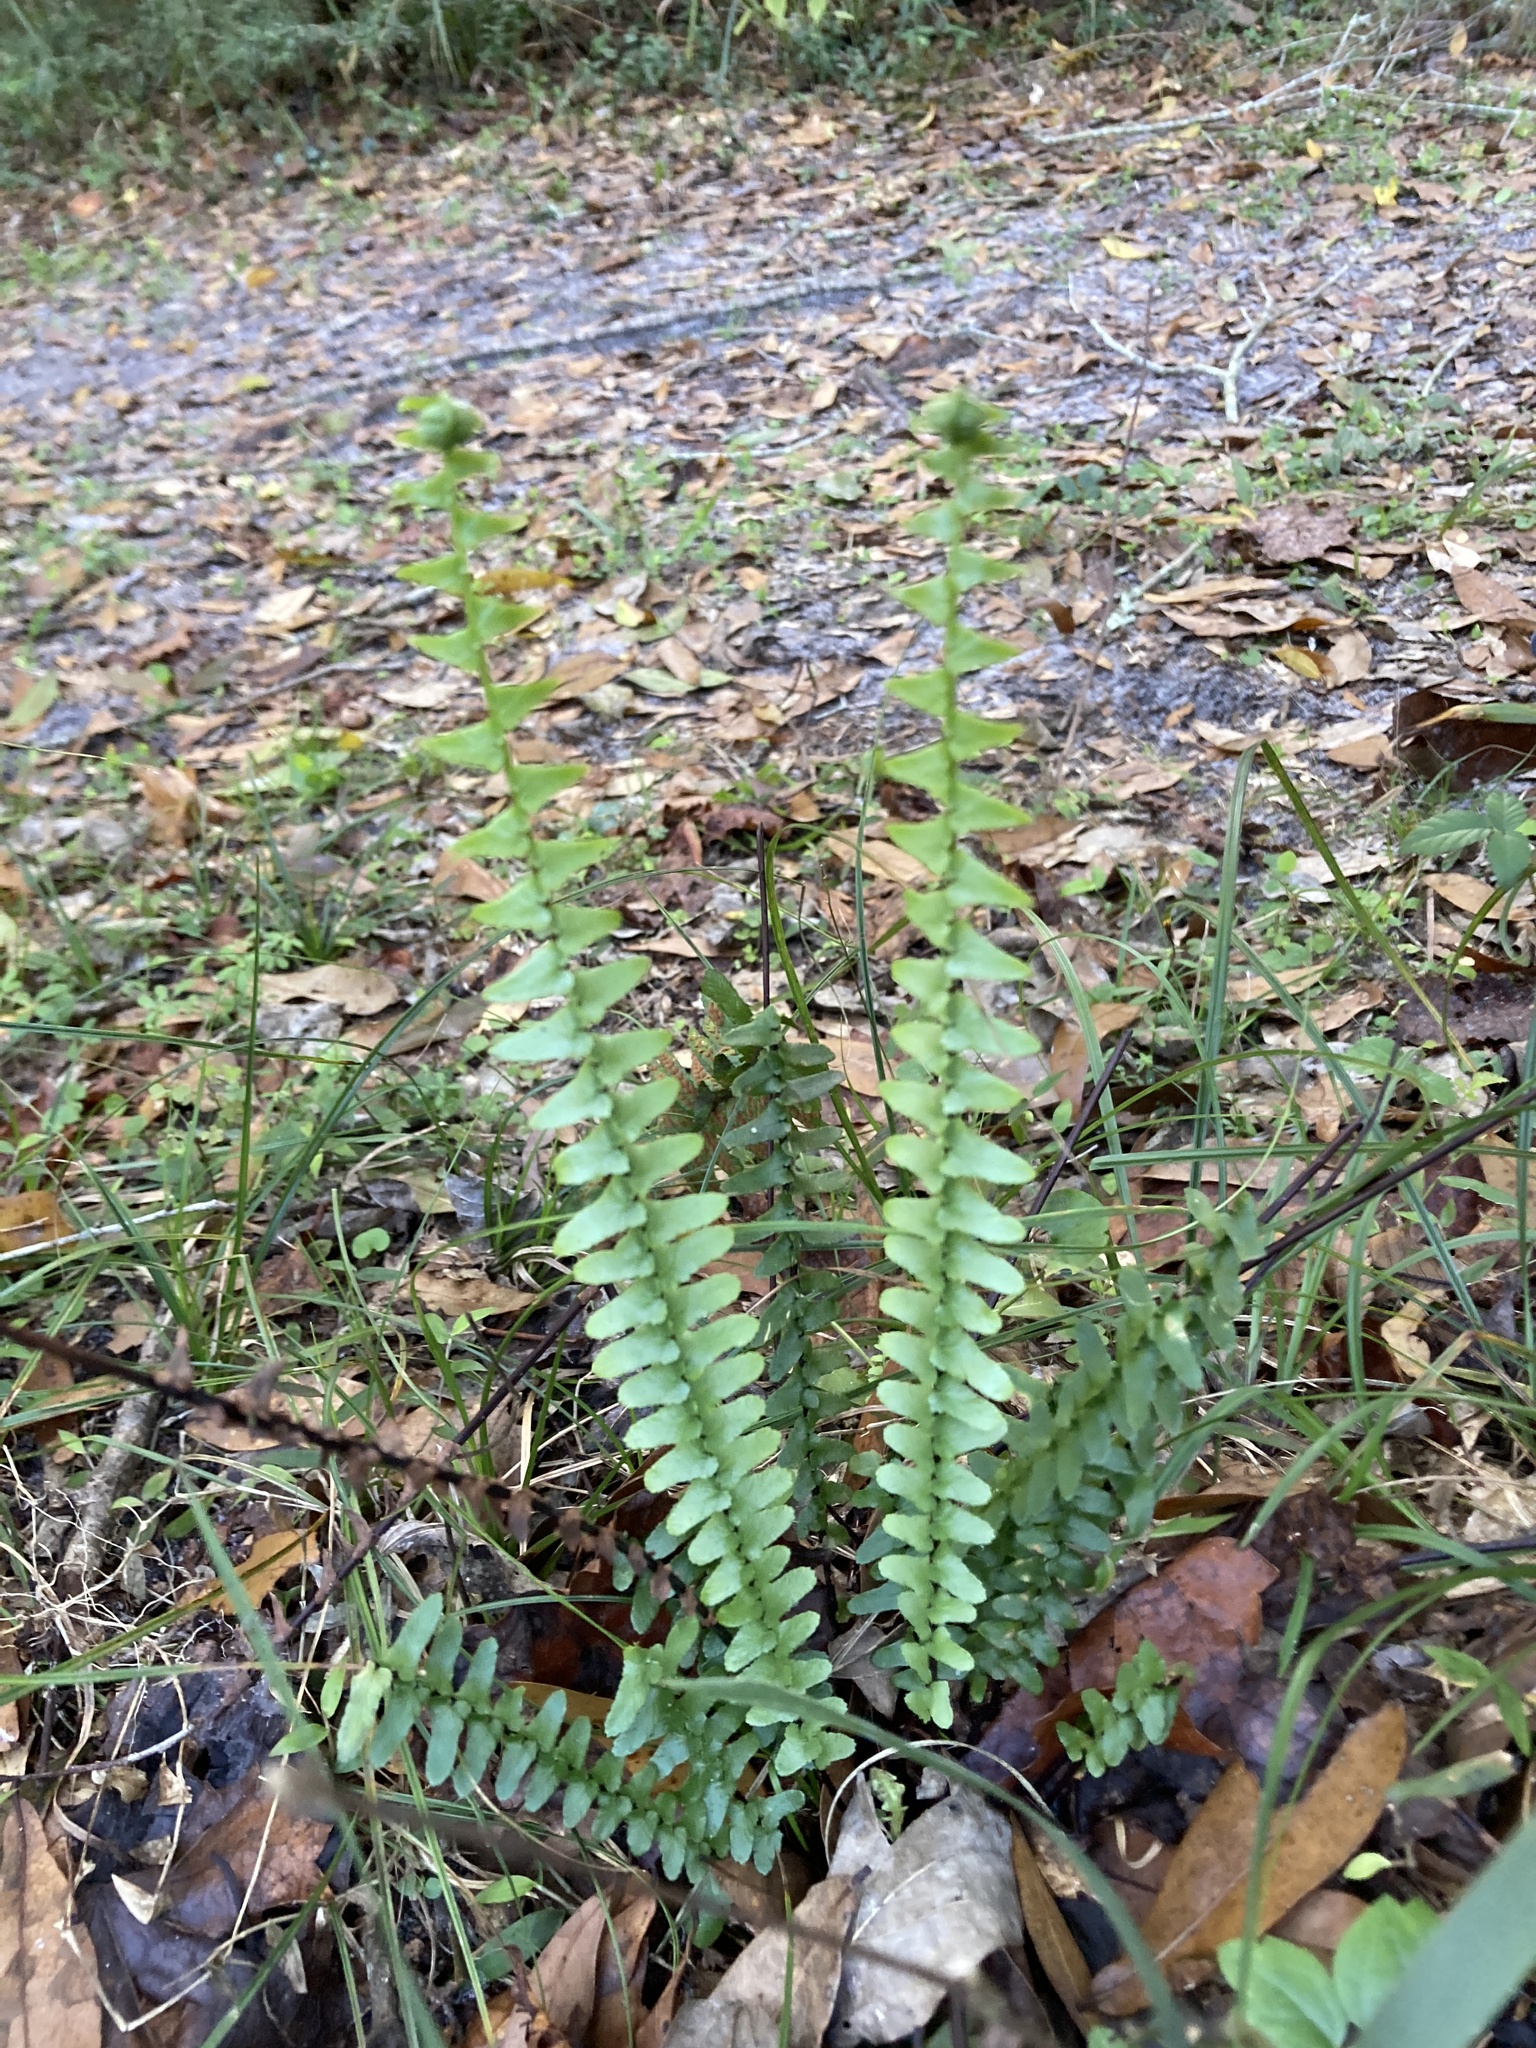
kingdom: Plantae
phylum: Tracheophyta
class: Polypodiopsida
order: Polypodiales
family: Aspleniaceae
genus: Asplenium
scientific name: Asplenium platyneuron
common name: Ebony spleenwort
